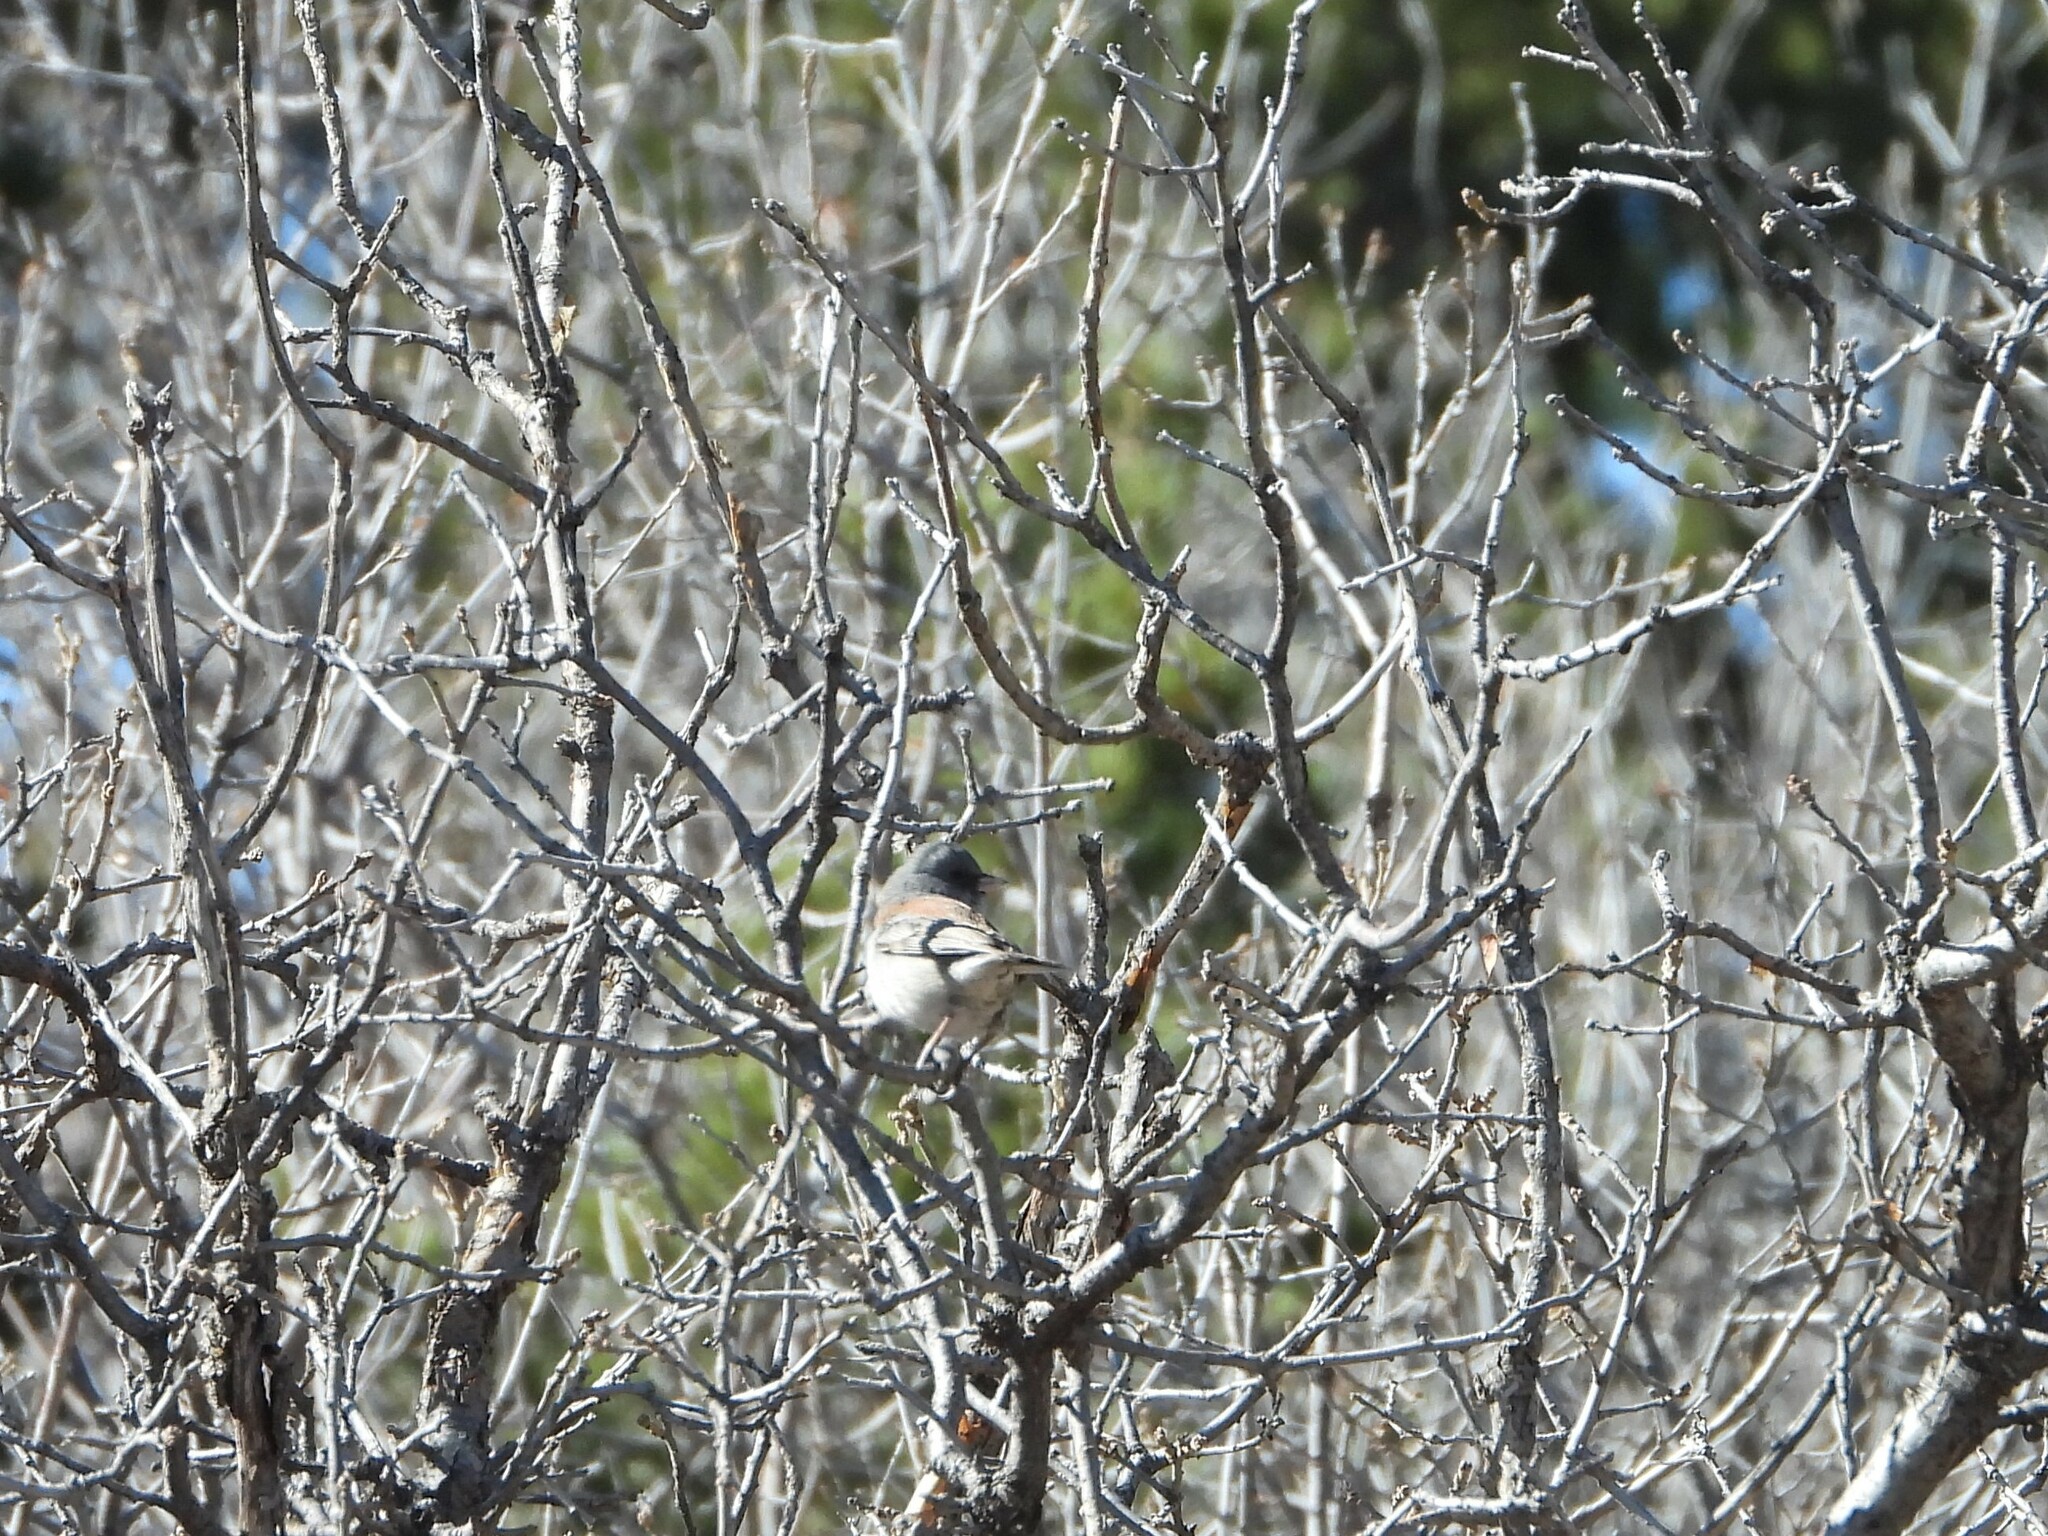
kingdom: Animalia
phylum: Chordata
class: Aves
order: Passeriformes
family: Passerellidae
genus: Junco
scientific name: Junco hyemalis
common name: Dark-eyed junco
